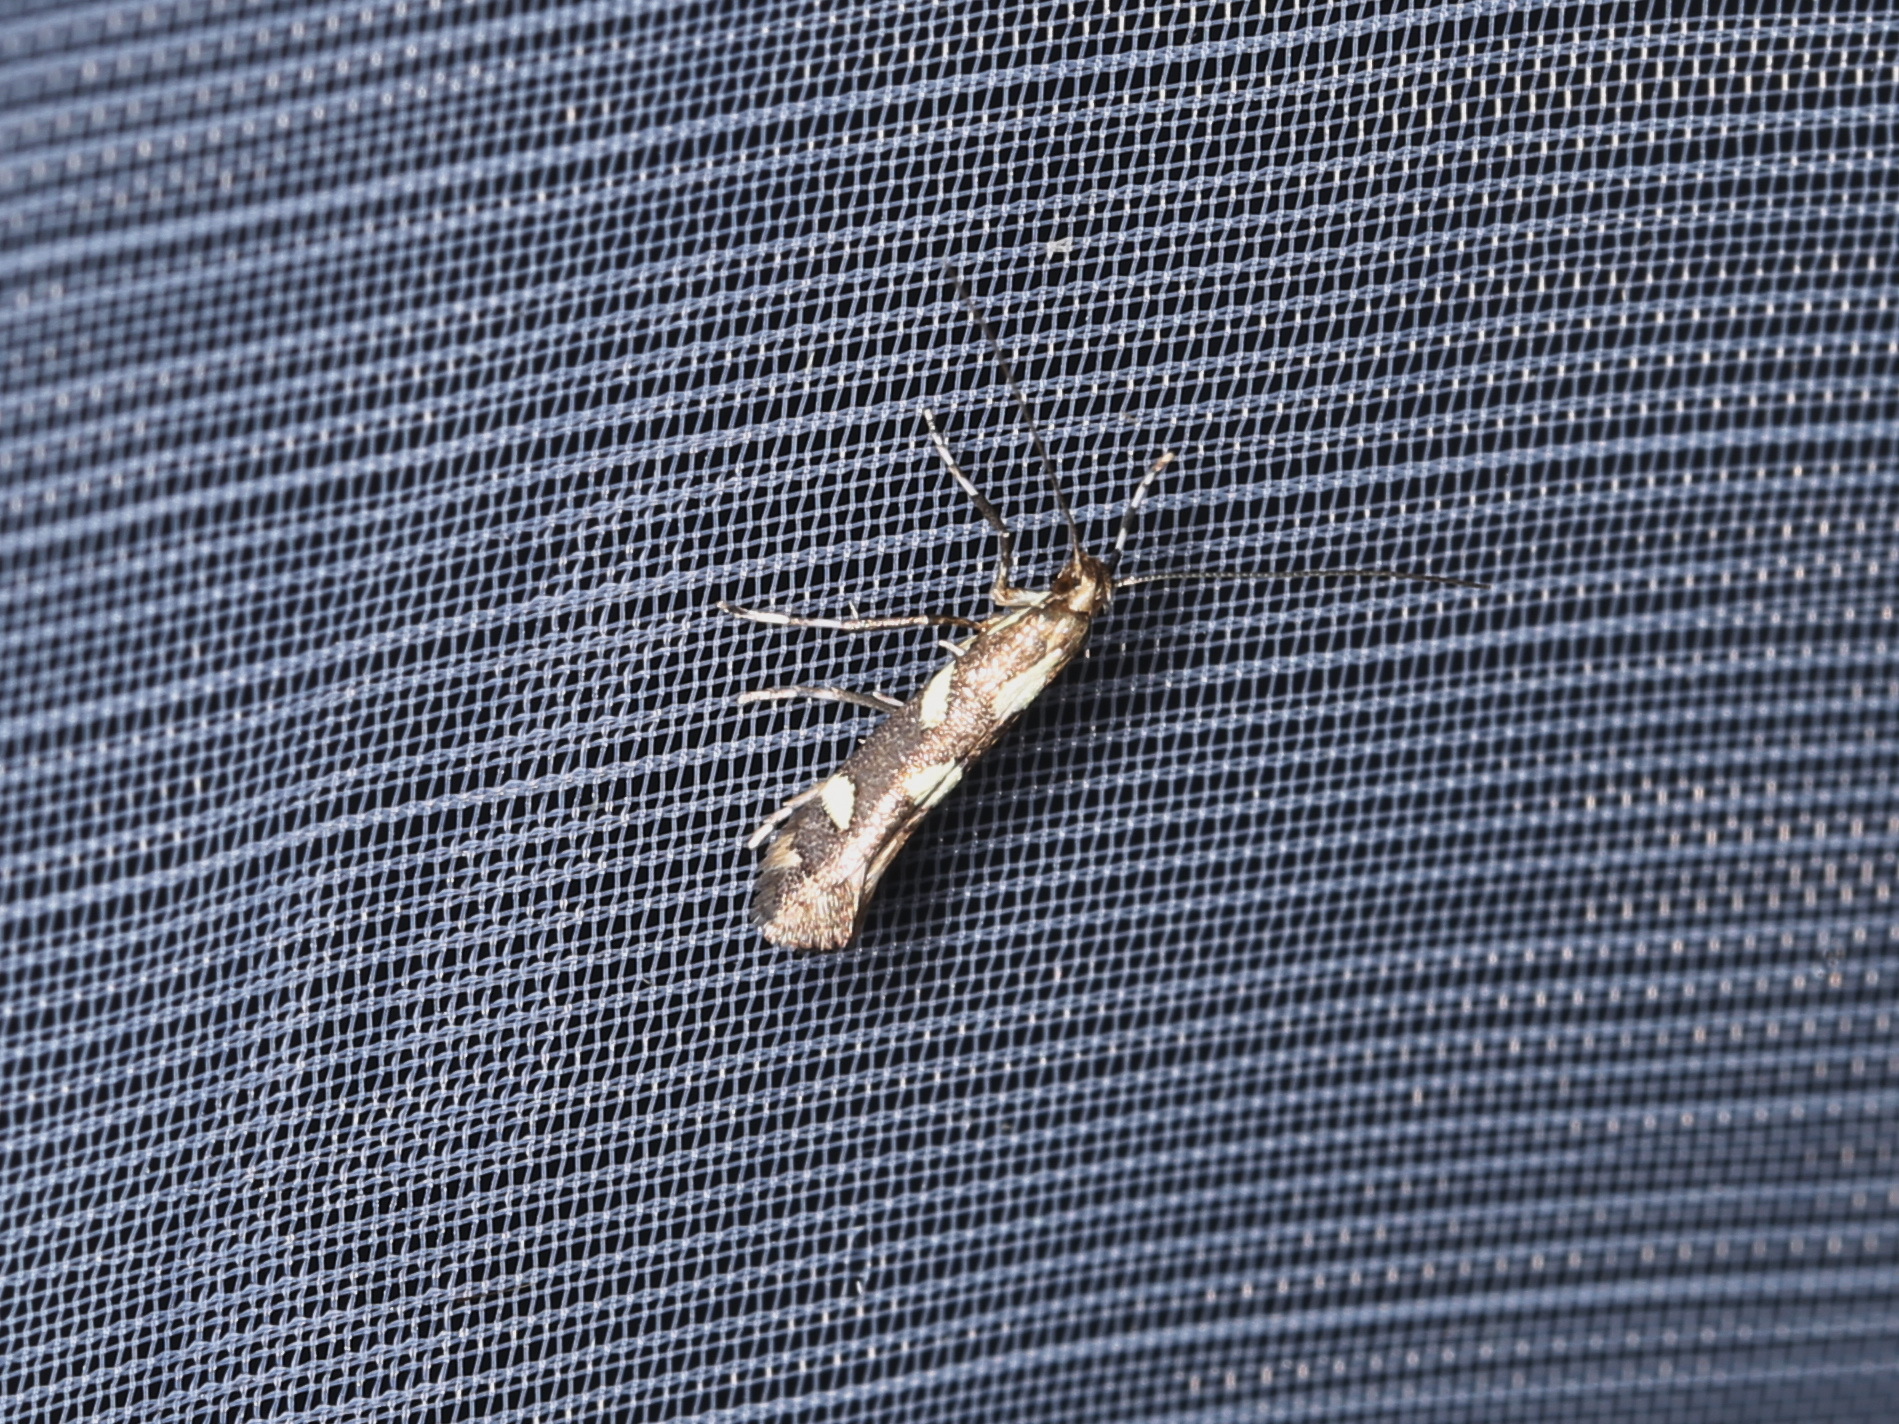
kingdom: Animalia
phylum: Arthropoda
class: Insecta
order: Lepidoptera
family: Gracillariidae
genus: Calybites
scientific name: Calybites phasianipennella
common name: Little slender
